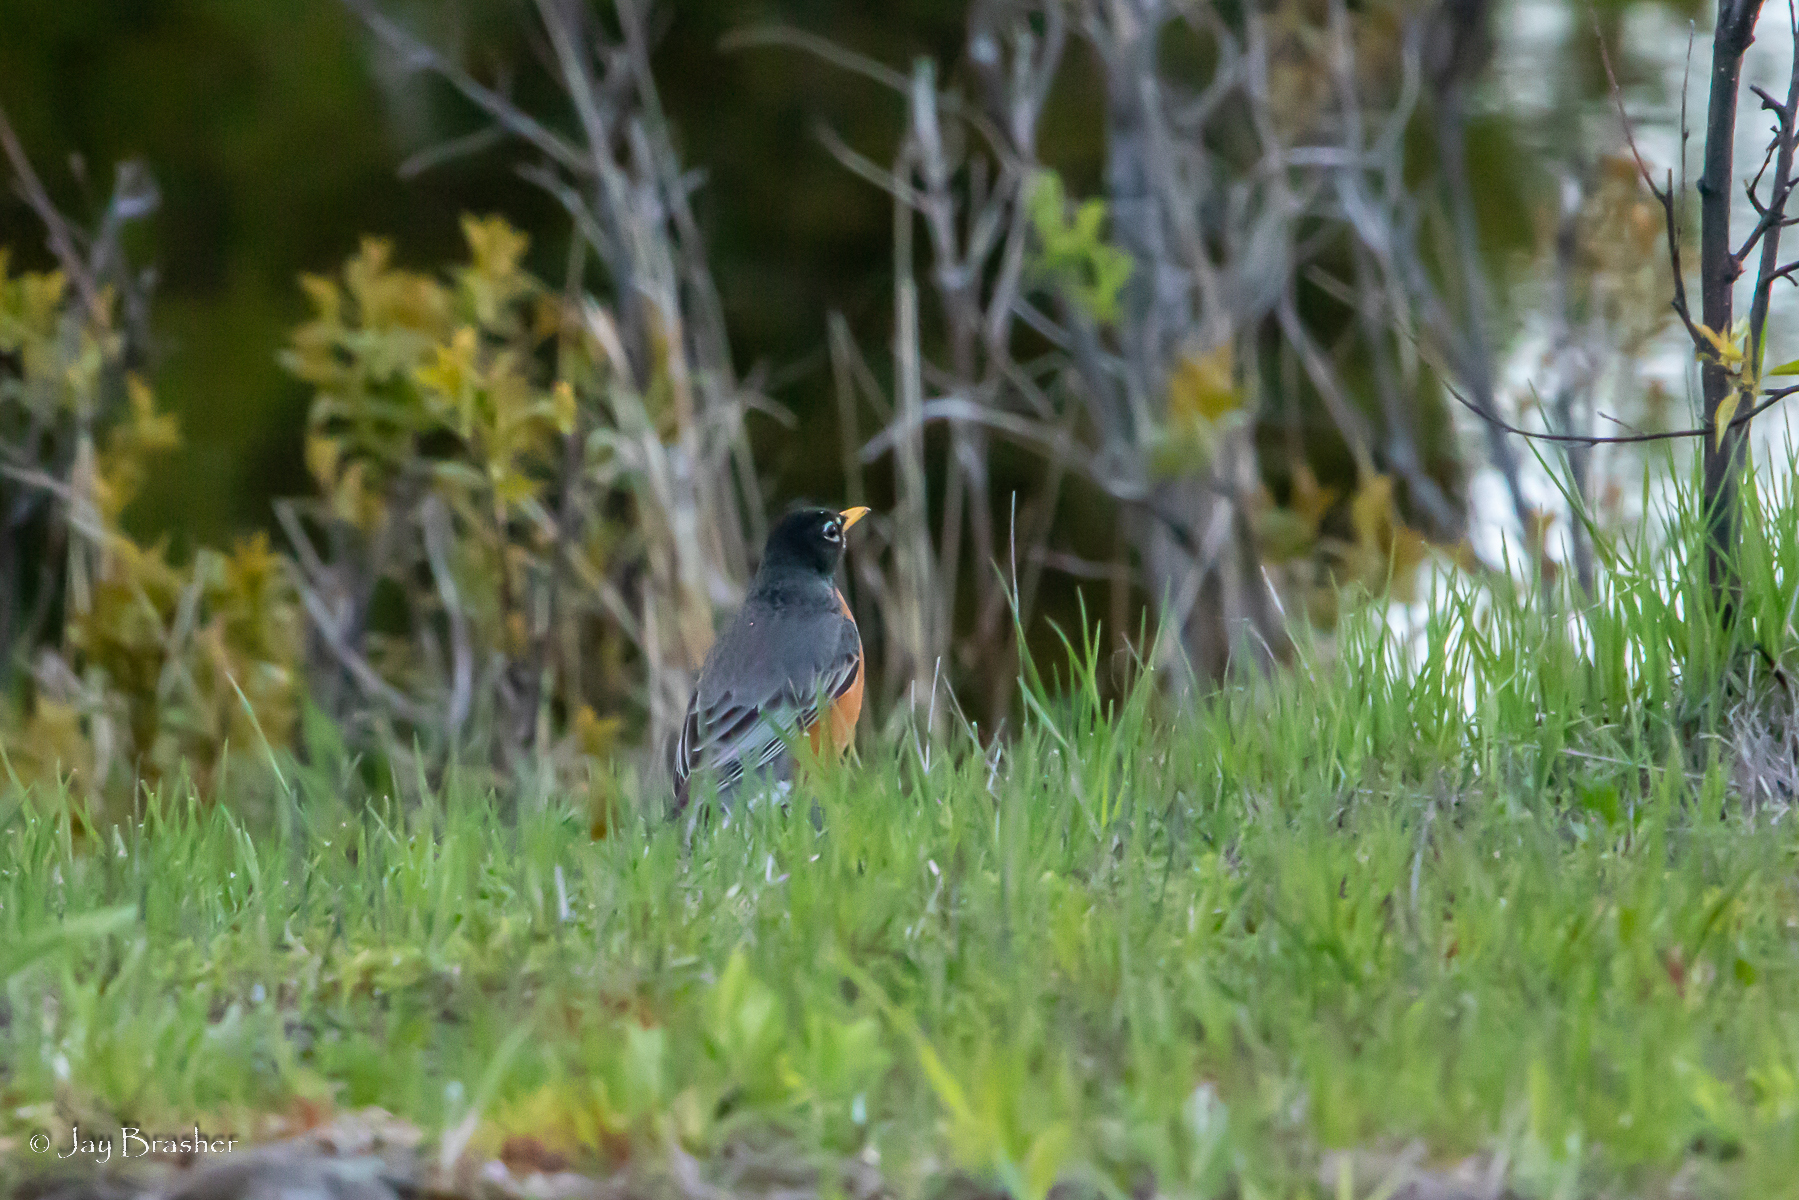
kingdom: Animalia
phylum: Chordata
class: Aves
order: Passeriformes
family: Turdidae
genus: Turdus
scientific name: Turdus migratorius
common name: American robin
